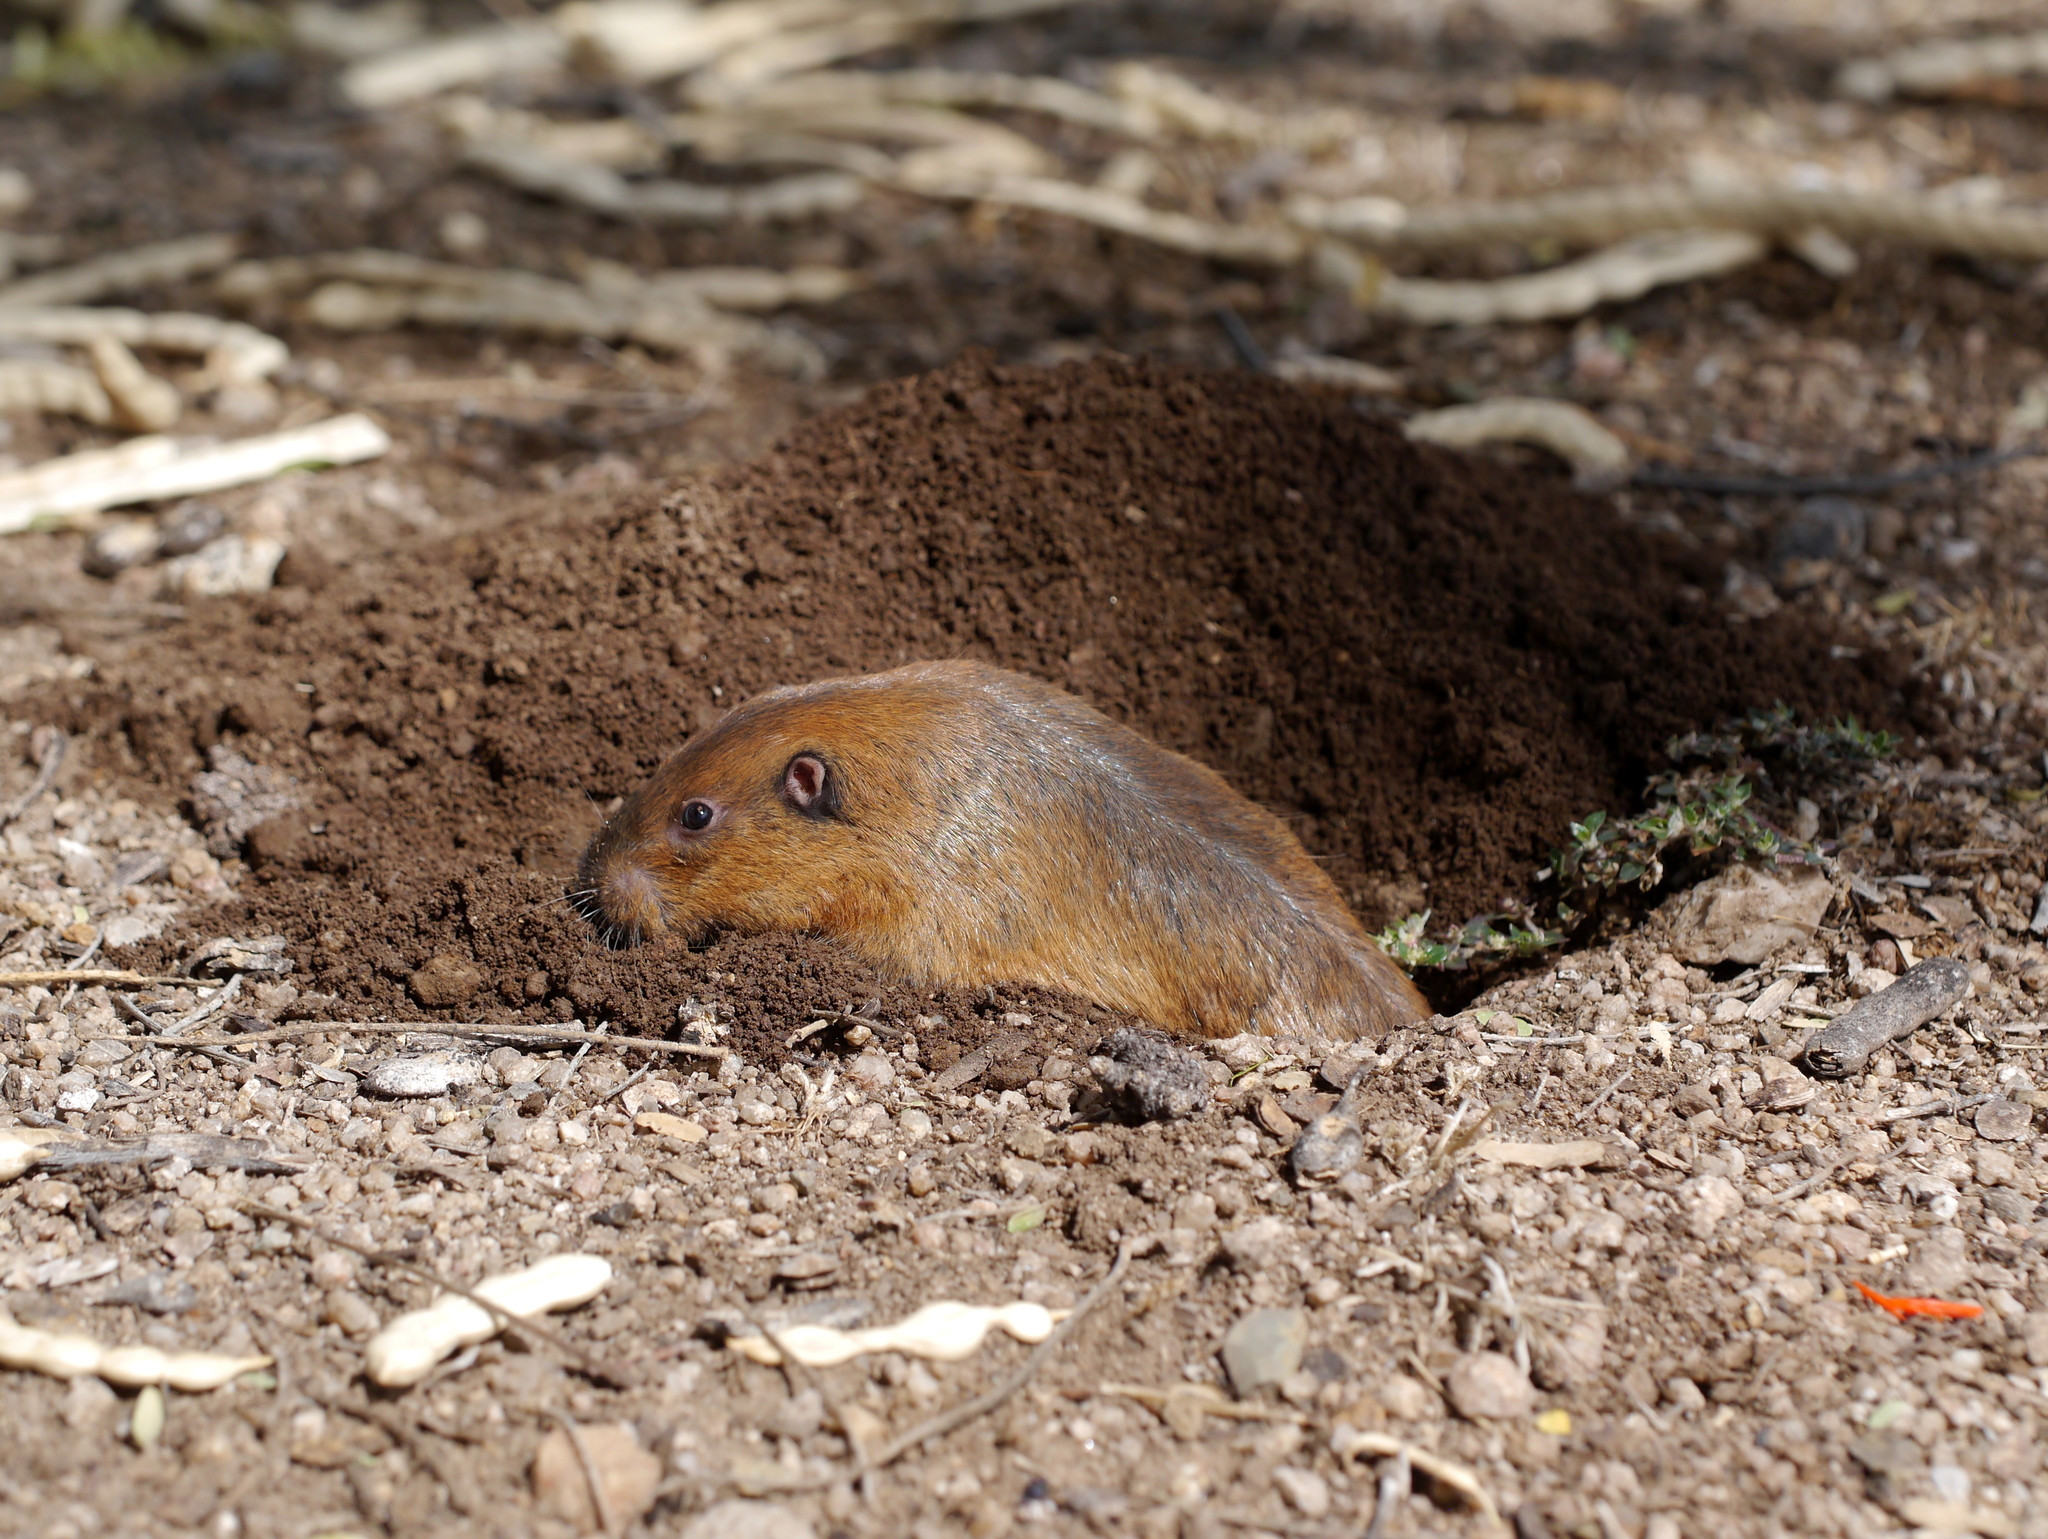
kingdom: Animalia
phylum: Chordata
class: Mammalia
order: Rodentia
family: Geomyidae
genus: Thomomys
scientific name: Thomomys bottae
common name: Botta's pocket gopher
